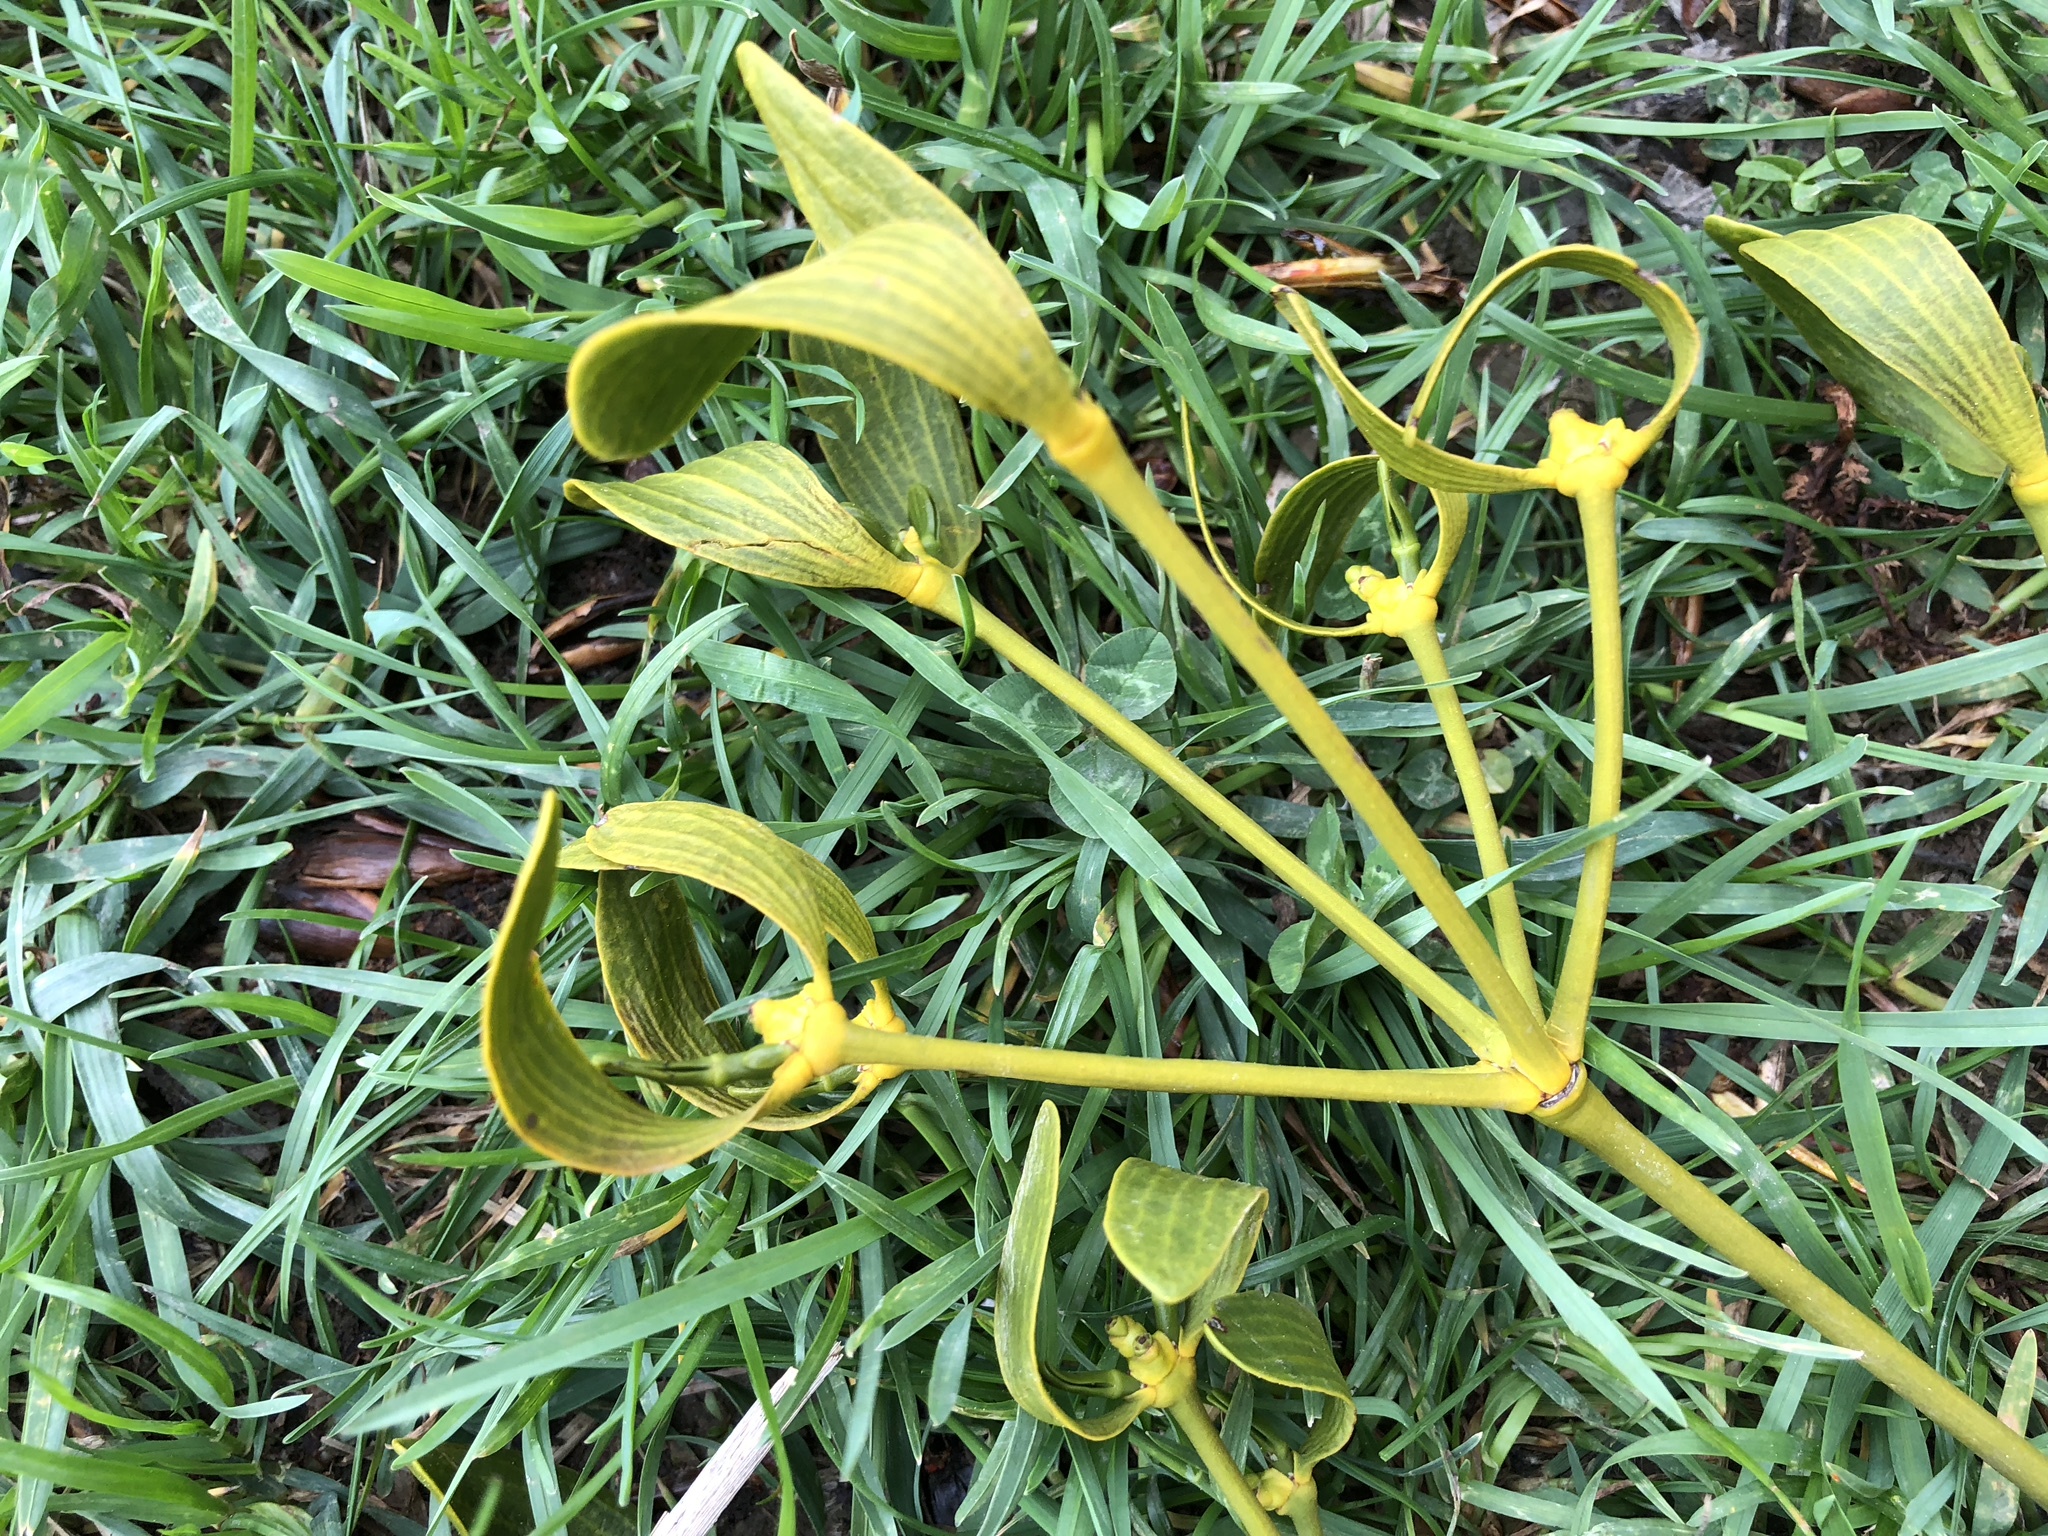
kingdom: Plantae
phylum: Tracheophyta
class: Magnoliopsida
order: Santalales
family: Viscaceae
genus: Viscum
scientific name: Viscum album
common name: Mistletoe
